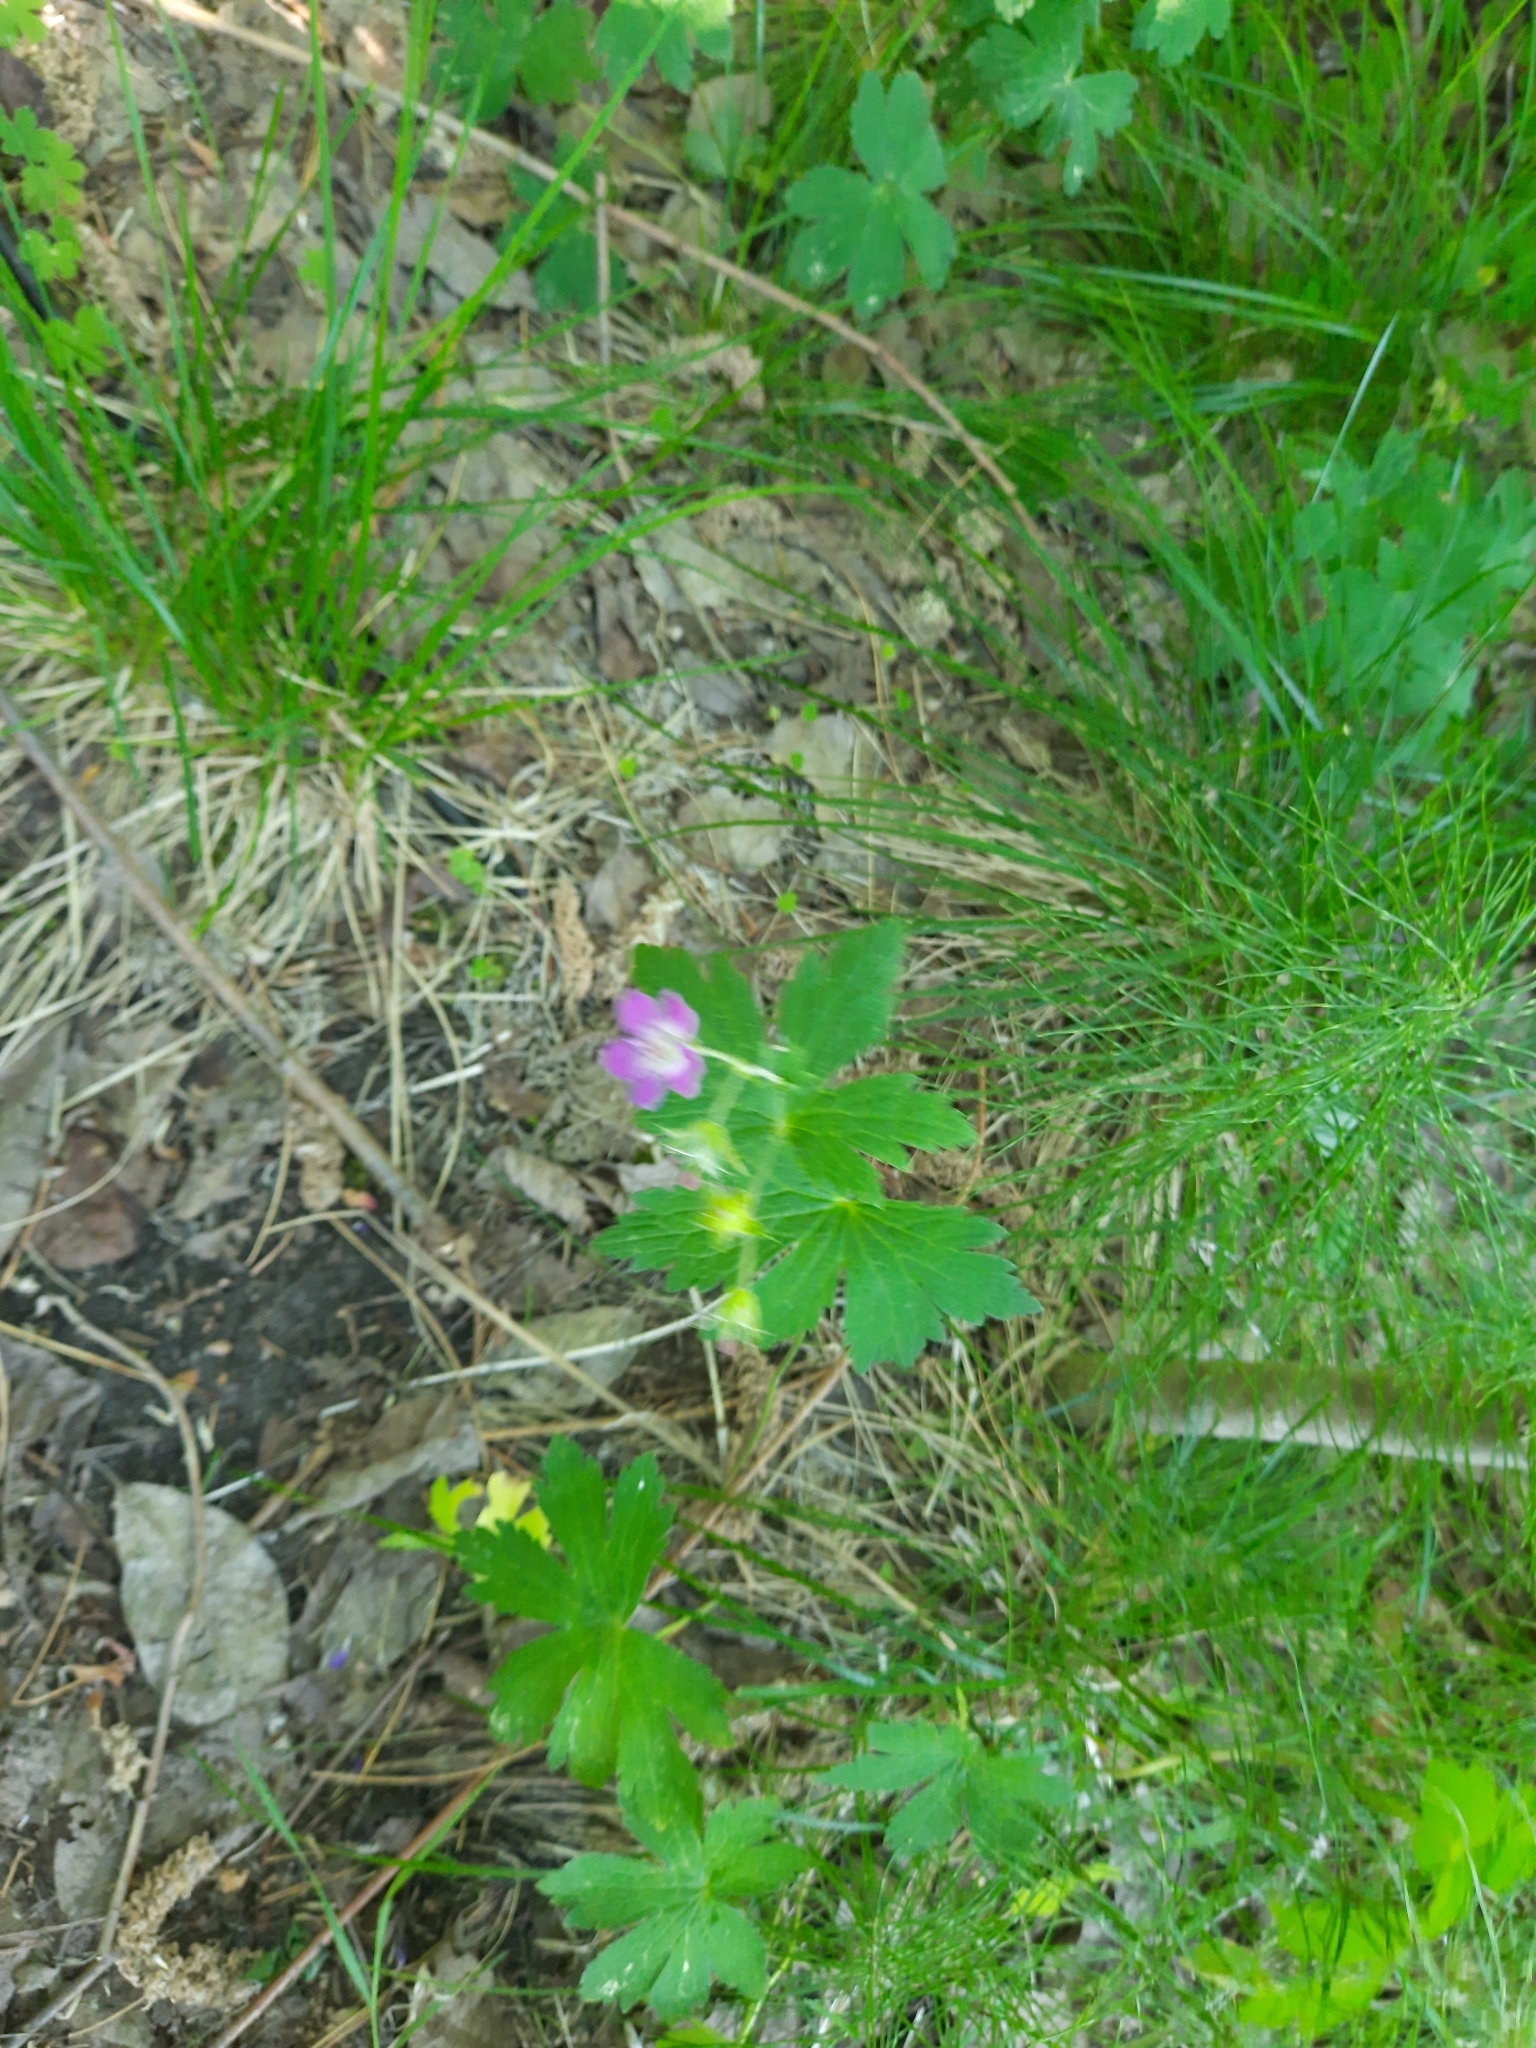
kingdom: Plantae
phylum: Tracheophyta
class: Magnoliopsida
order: Geraniales
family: Geraniaceae
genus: Geranium
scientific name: Geranium sylvaticum
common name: Wood crane's-bill
